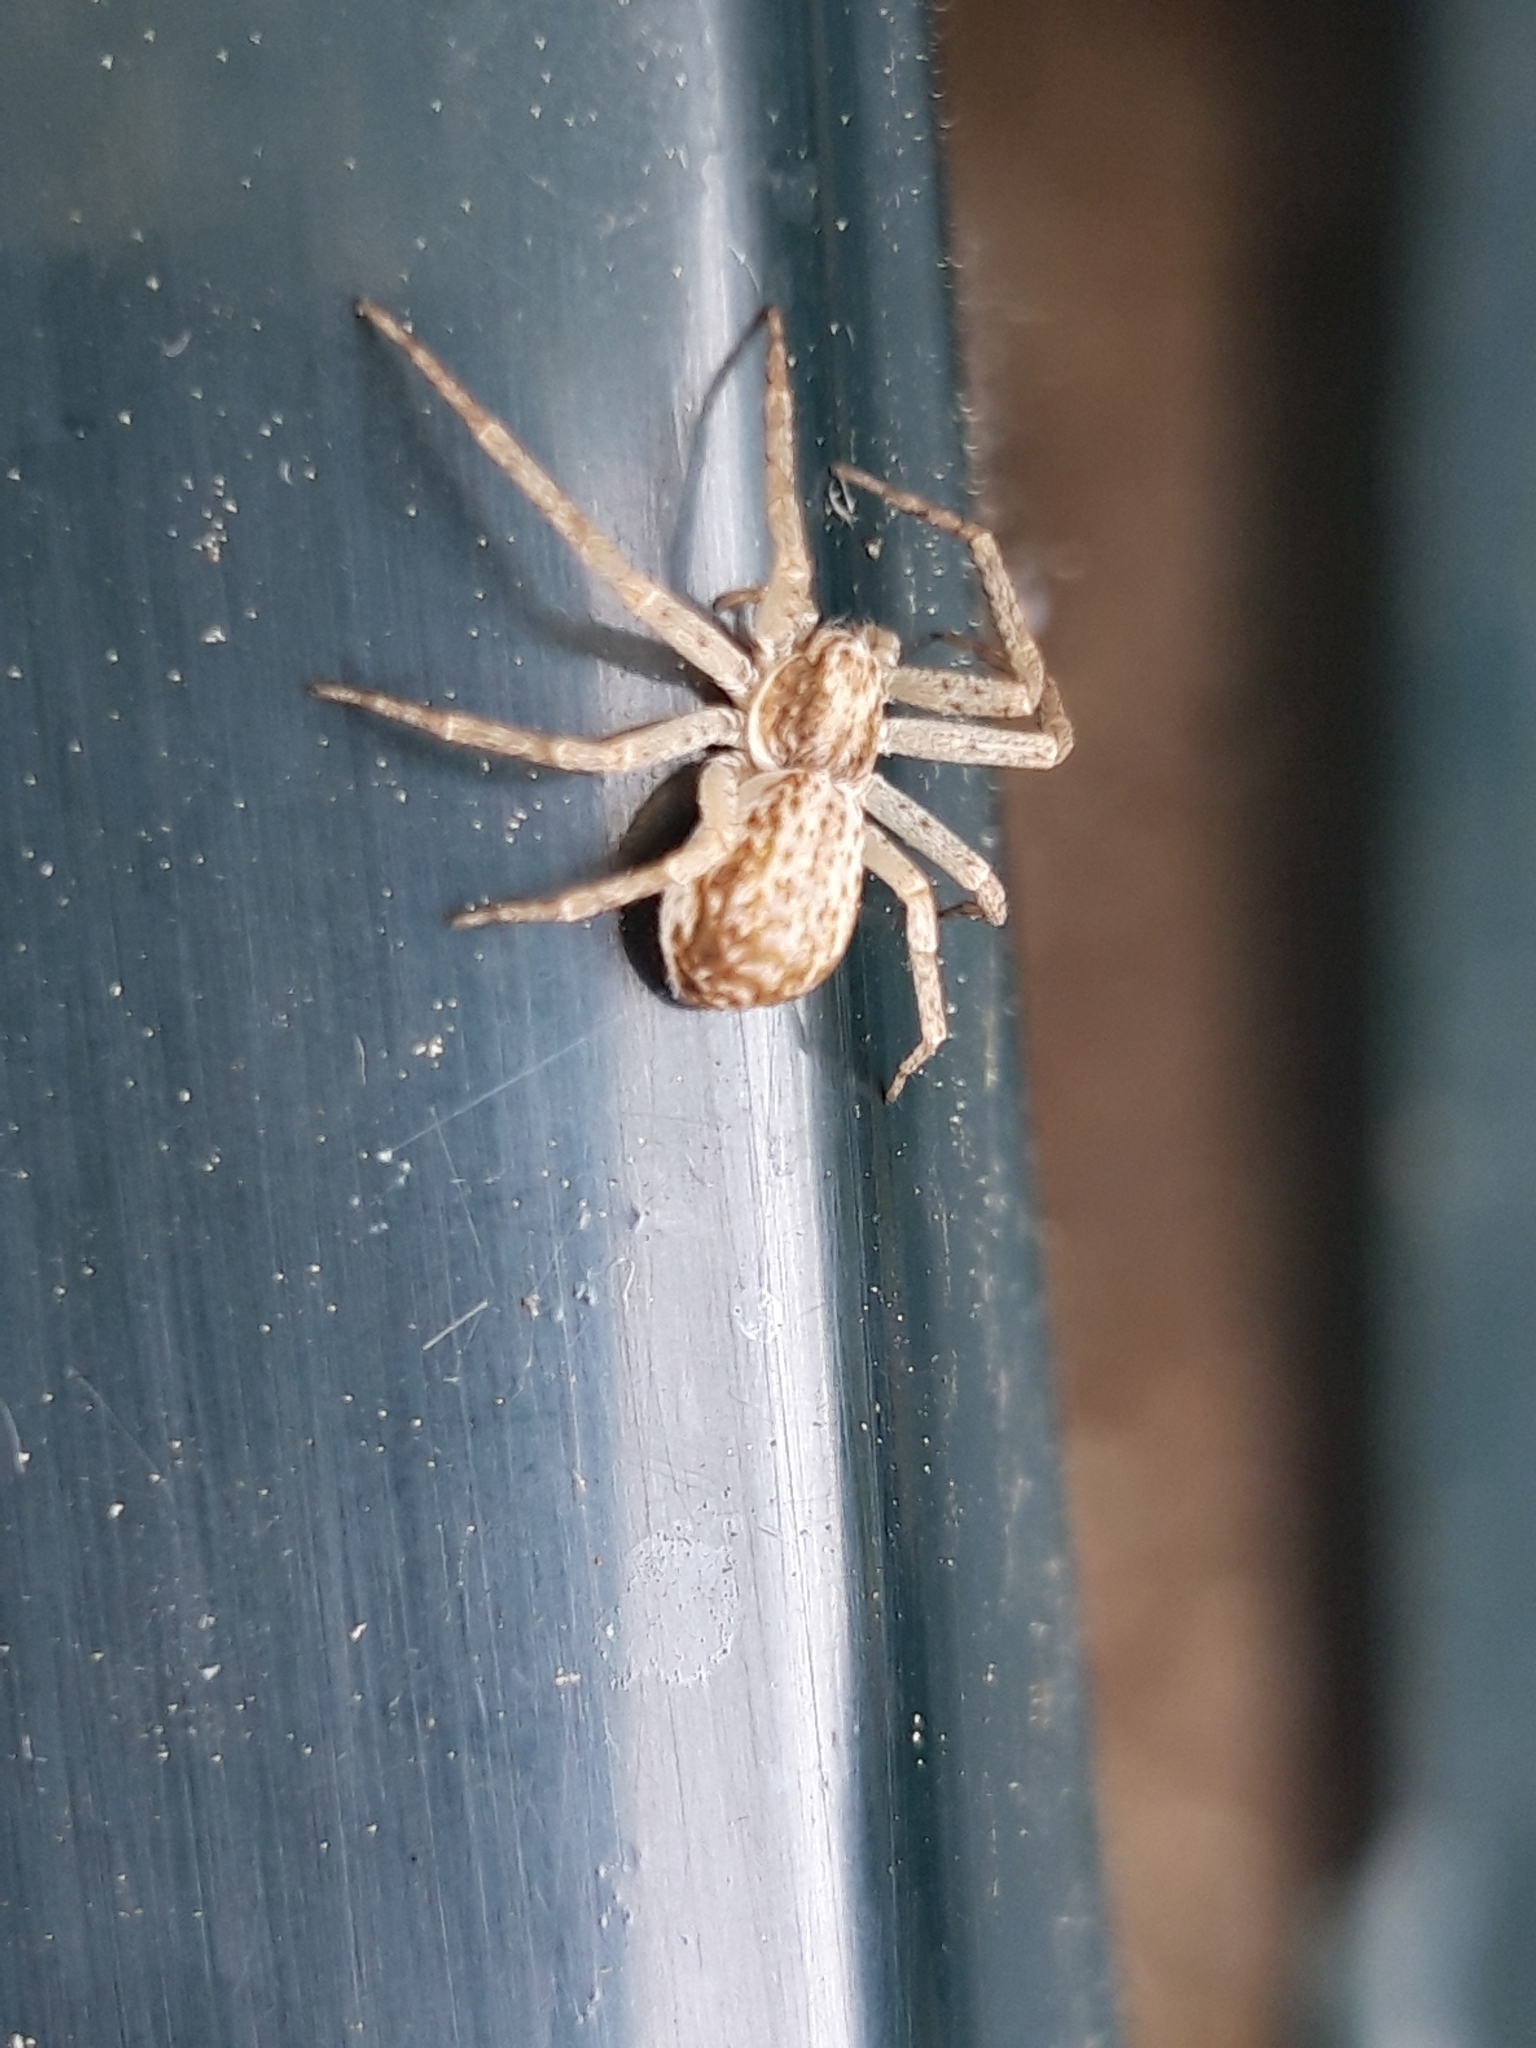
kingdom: Animalia
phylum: Arthropoda
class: Arachnida
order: Araneae
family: Philodromidae
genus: Philodromus
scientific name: Philodromus dispar
